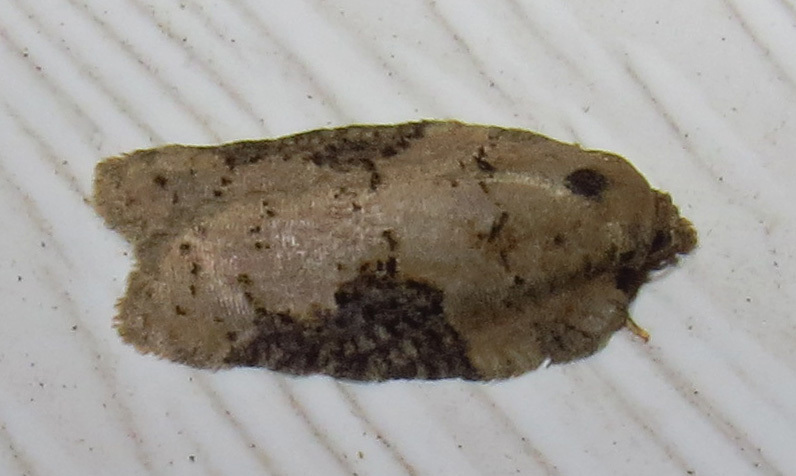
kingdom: Animalia
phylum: Arthropoda
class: Insecta
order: Lepidoptera
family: Tortricidae
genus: Acleris
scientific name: Acleris chalybeana
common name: Lesser maple leafroller
